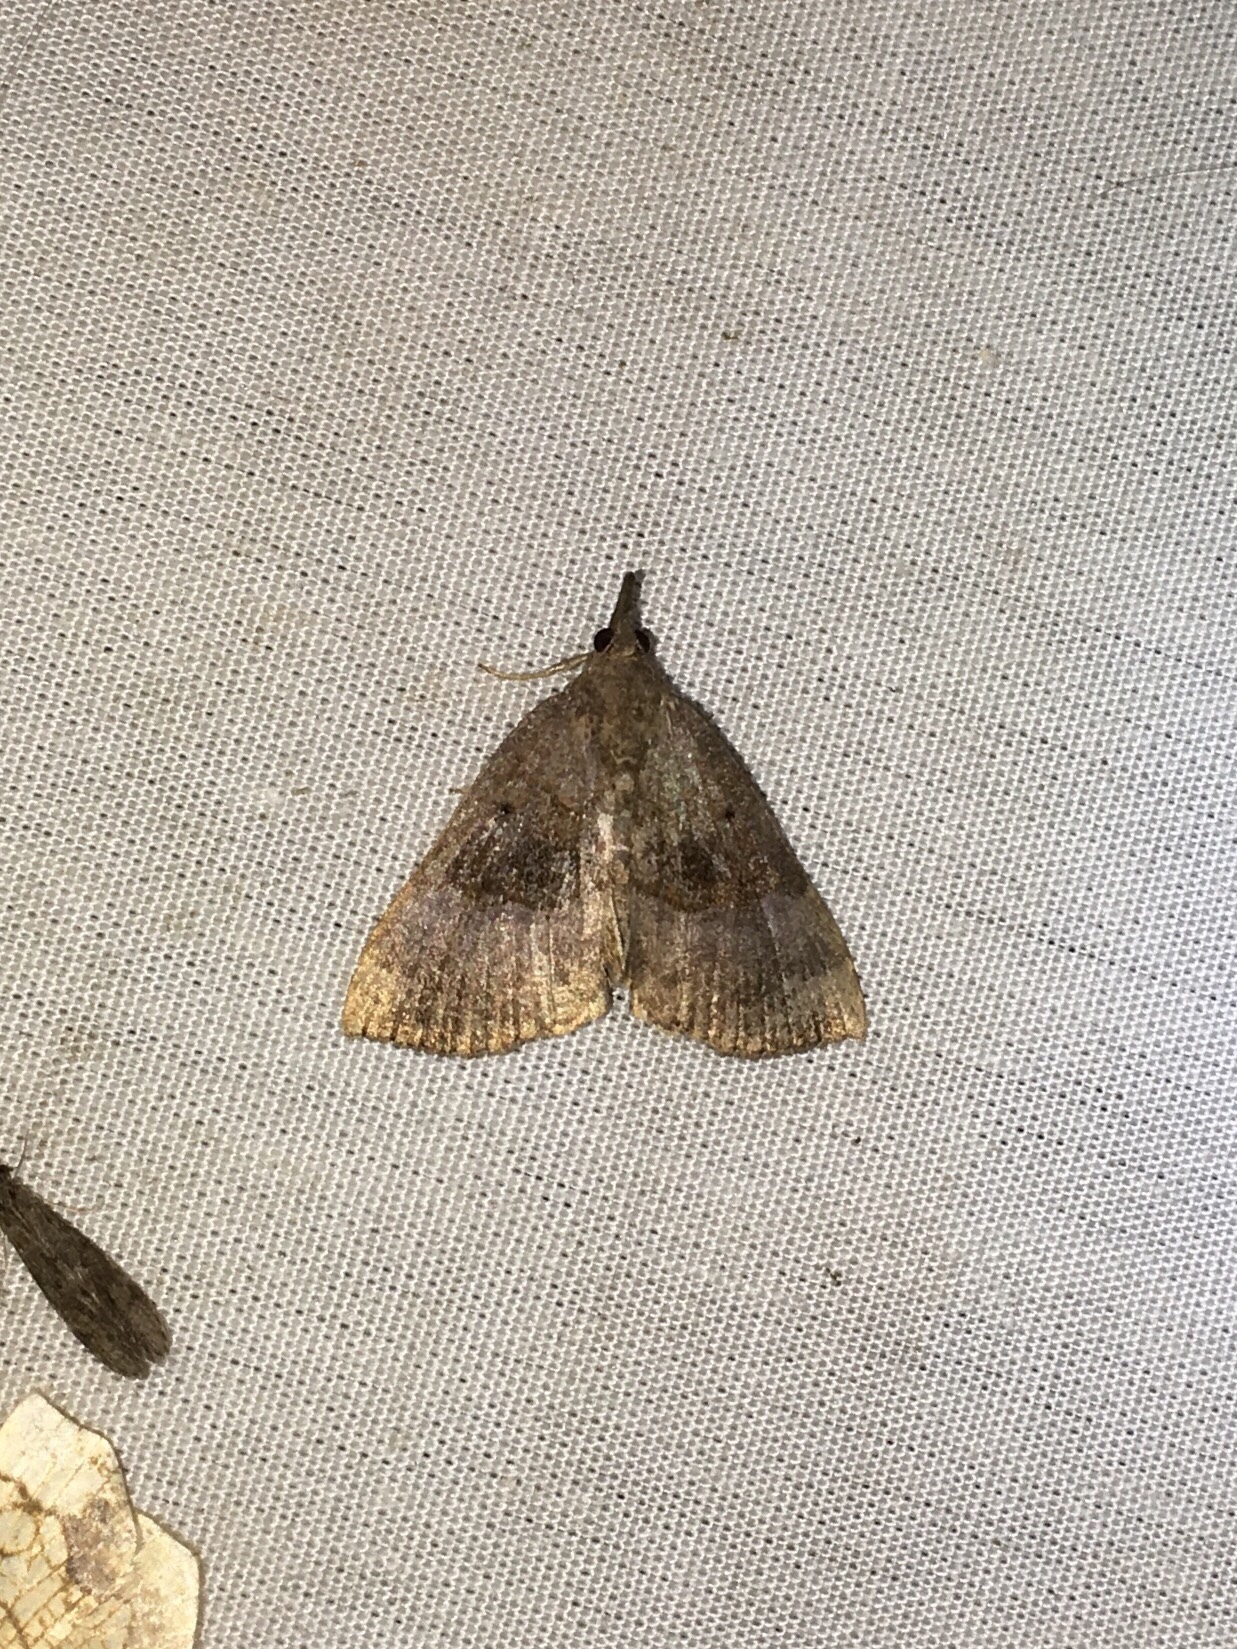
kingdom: Animalia
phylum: Arthropoda
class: Insecta
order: Lepidoptera
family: Erebidae
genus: Hypena
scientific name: Hypena madefactalis
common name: Gray-edged snout
